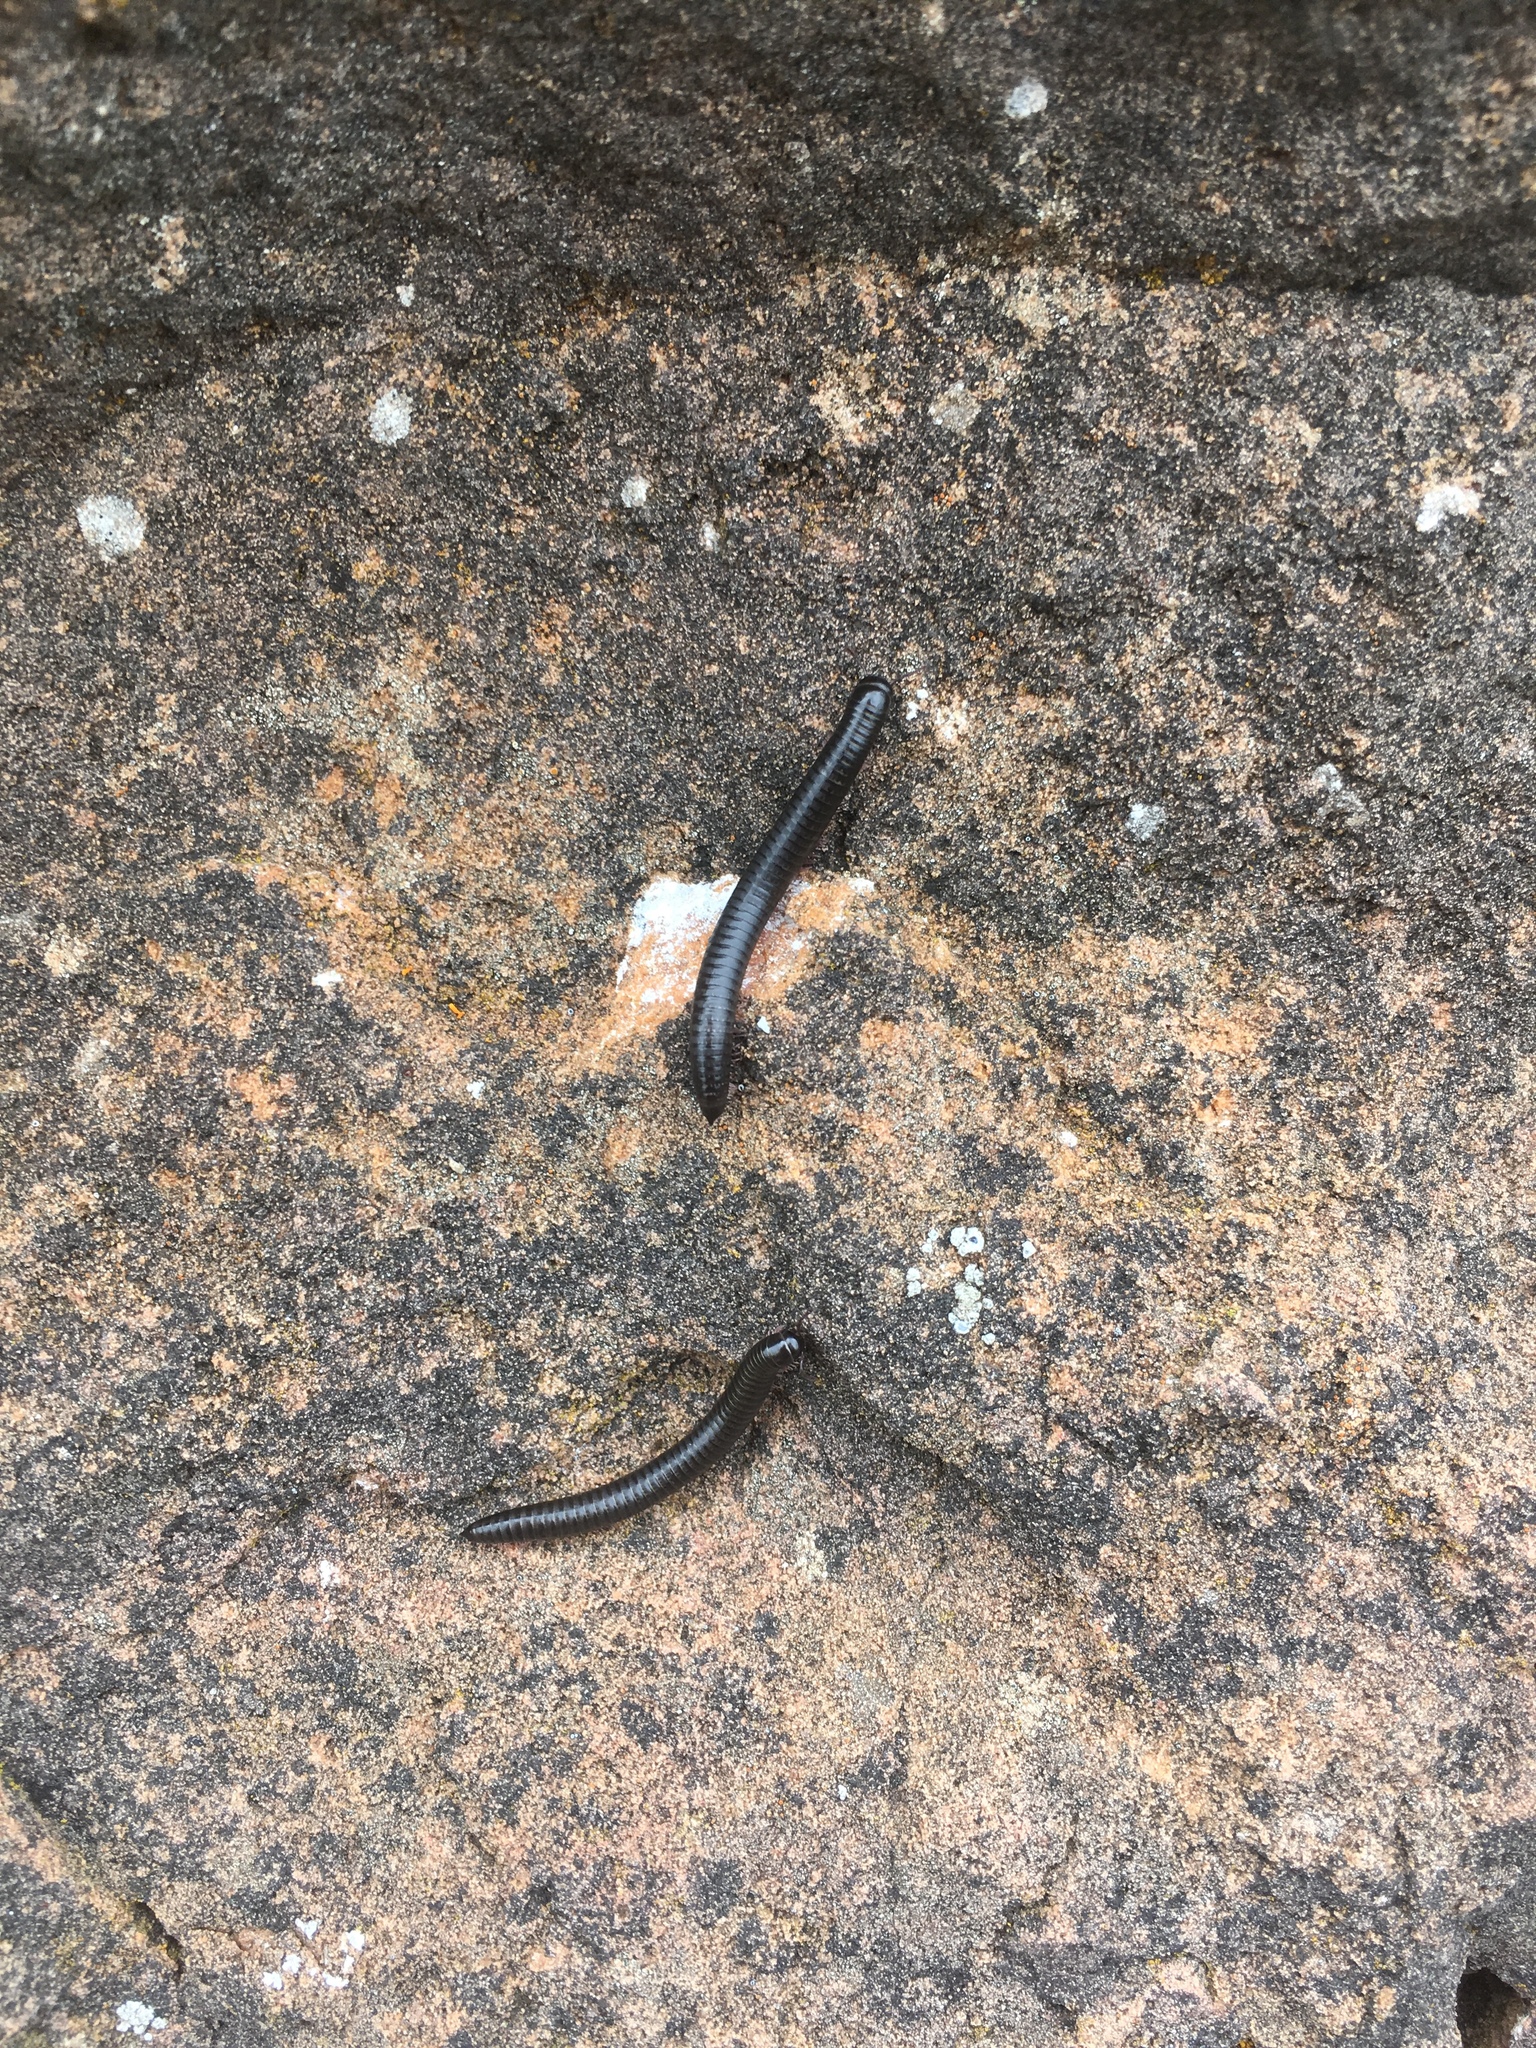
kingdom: Animalia
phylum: Arthropoda
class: Diplopoda
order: Julida
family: Julidae
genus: Ommatoiulus
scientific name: Ommatoiulus moreleti
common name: Portuguese millipede
